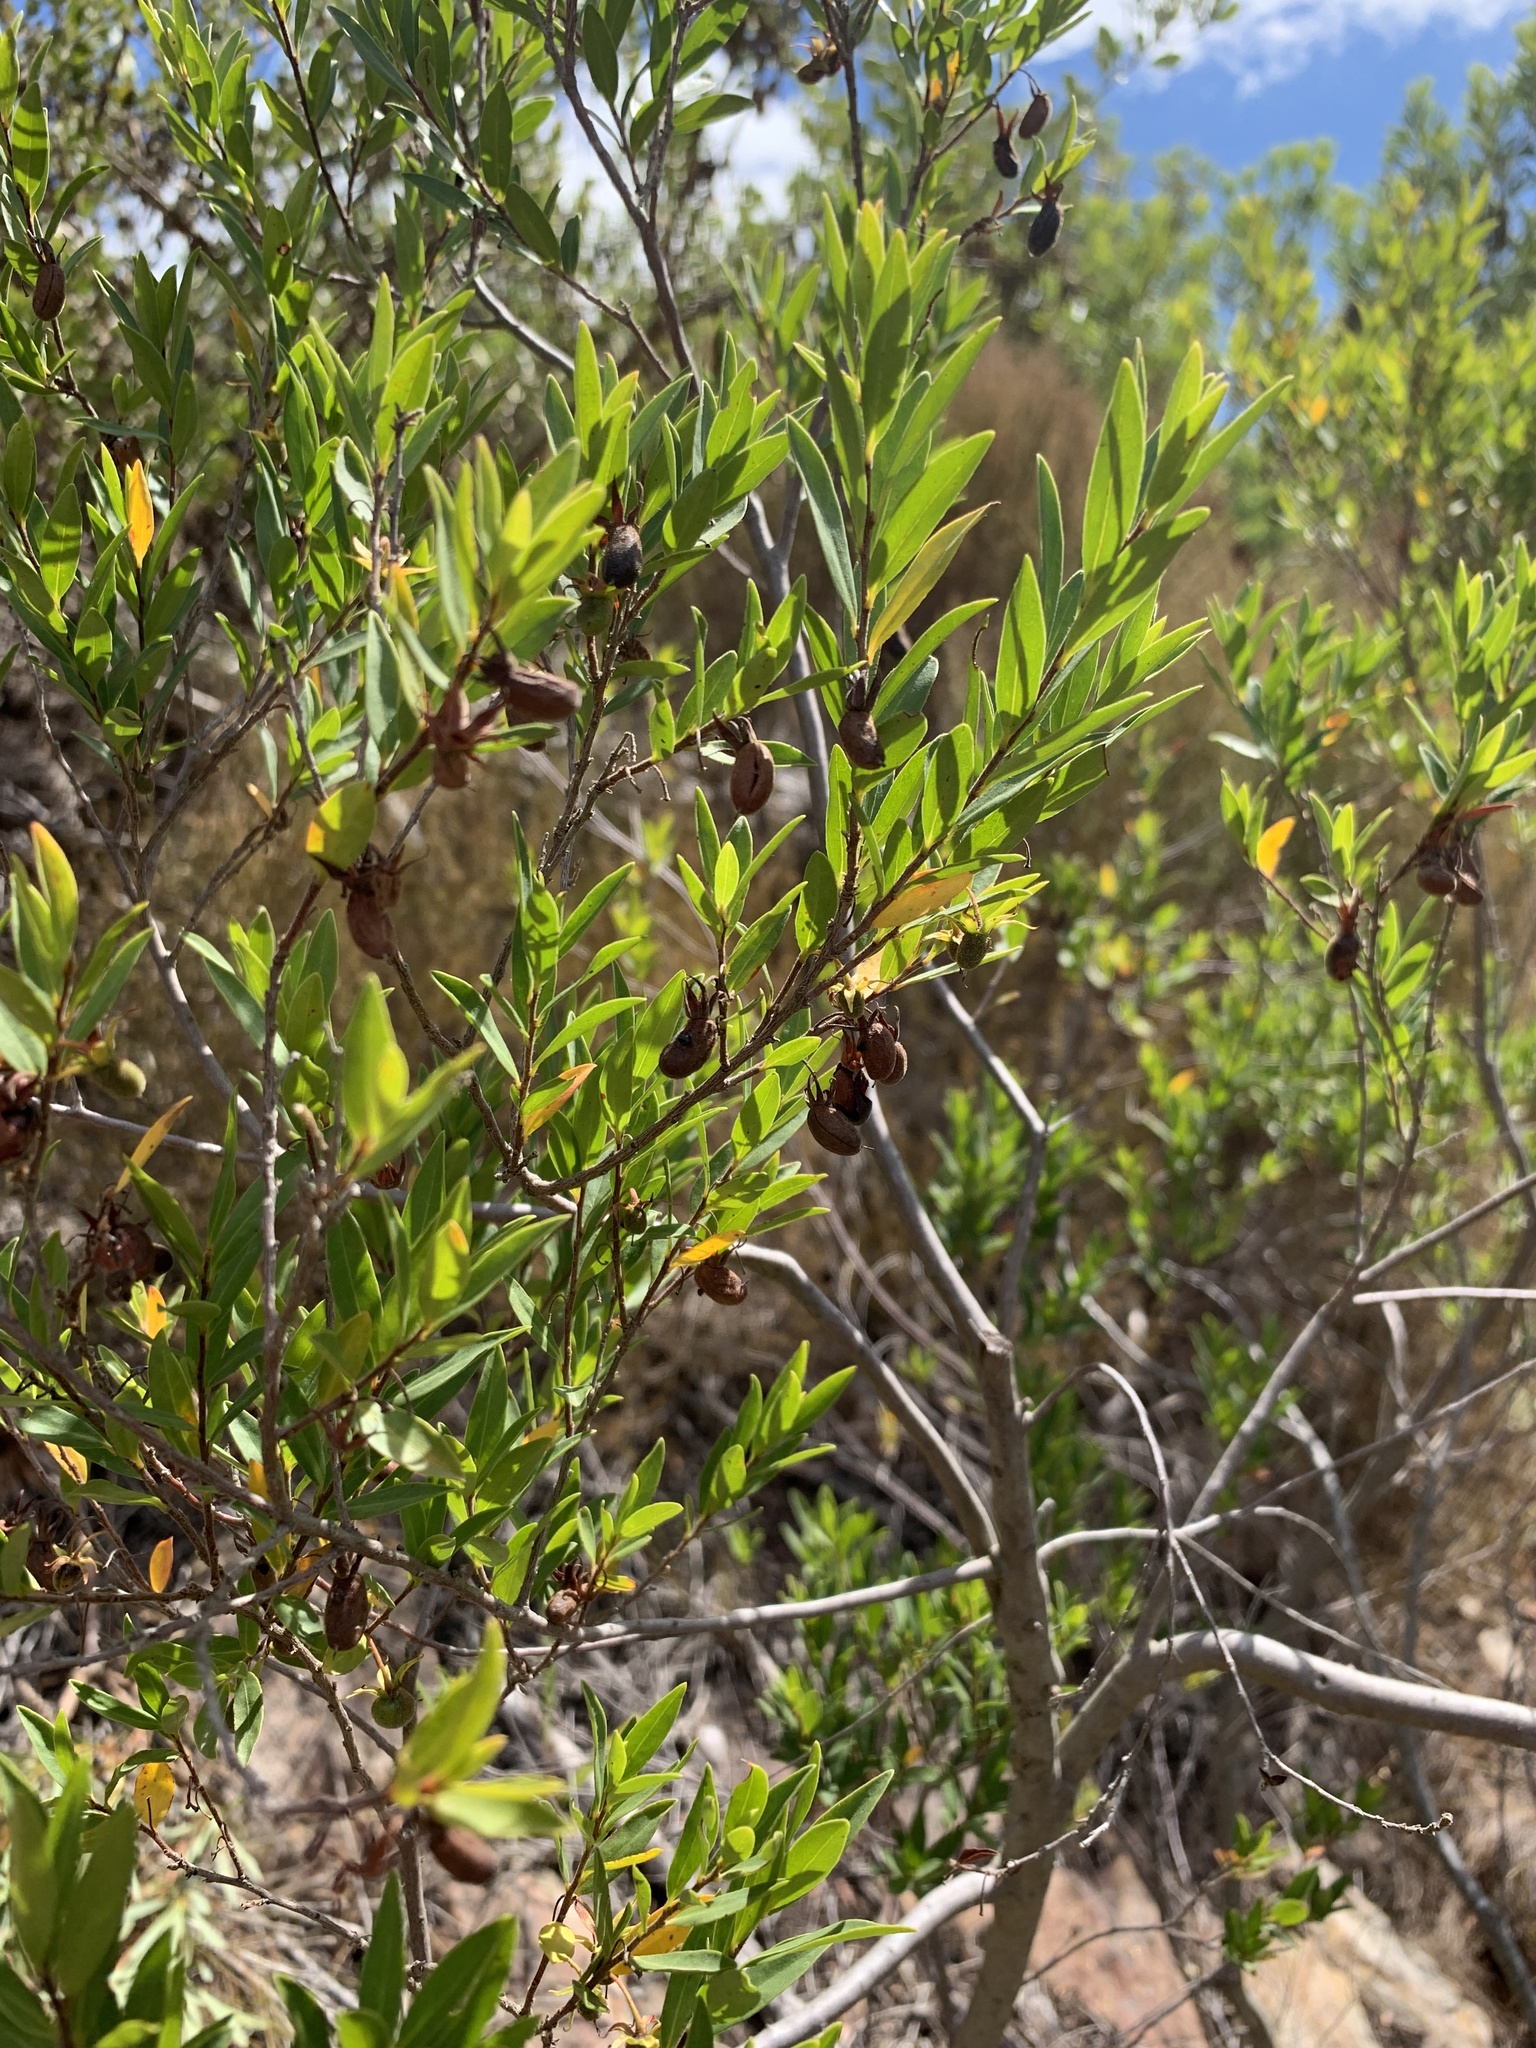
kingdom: Plantae
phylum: Tracheophyta
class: Magnoliopsida
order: Ericales
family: Ebenaceae
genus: Diospyros
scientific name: Diospyros glabra
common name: Fynbos star apple
